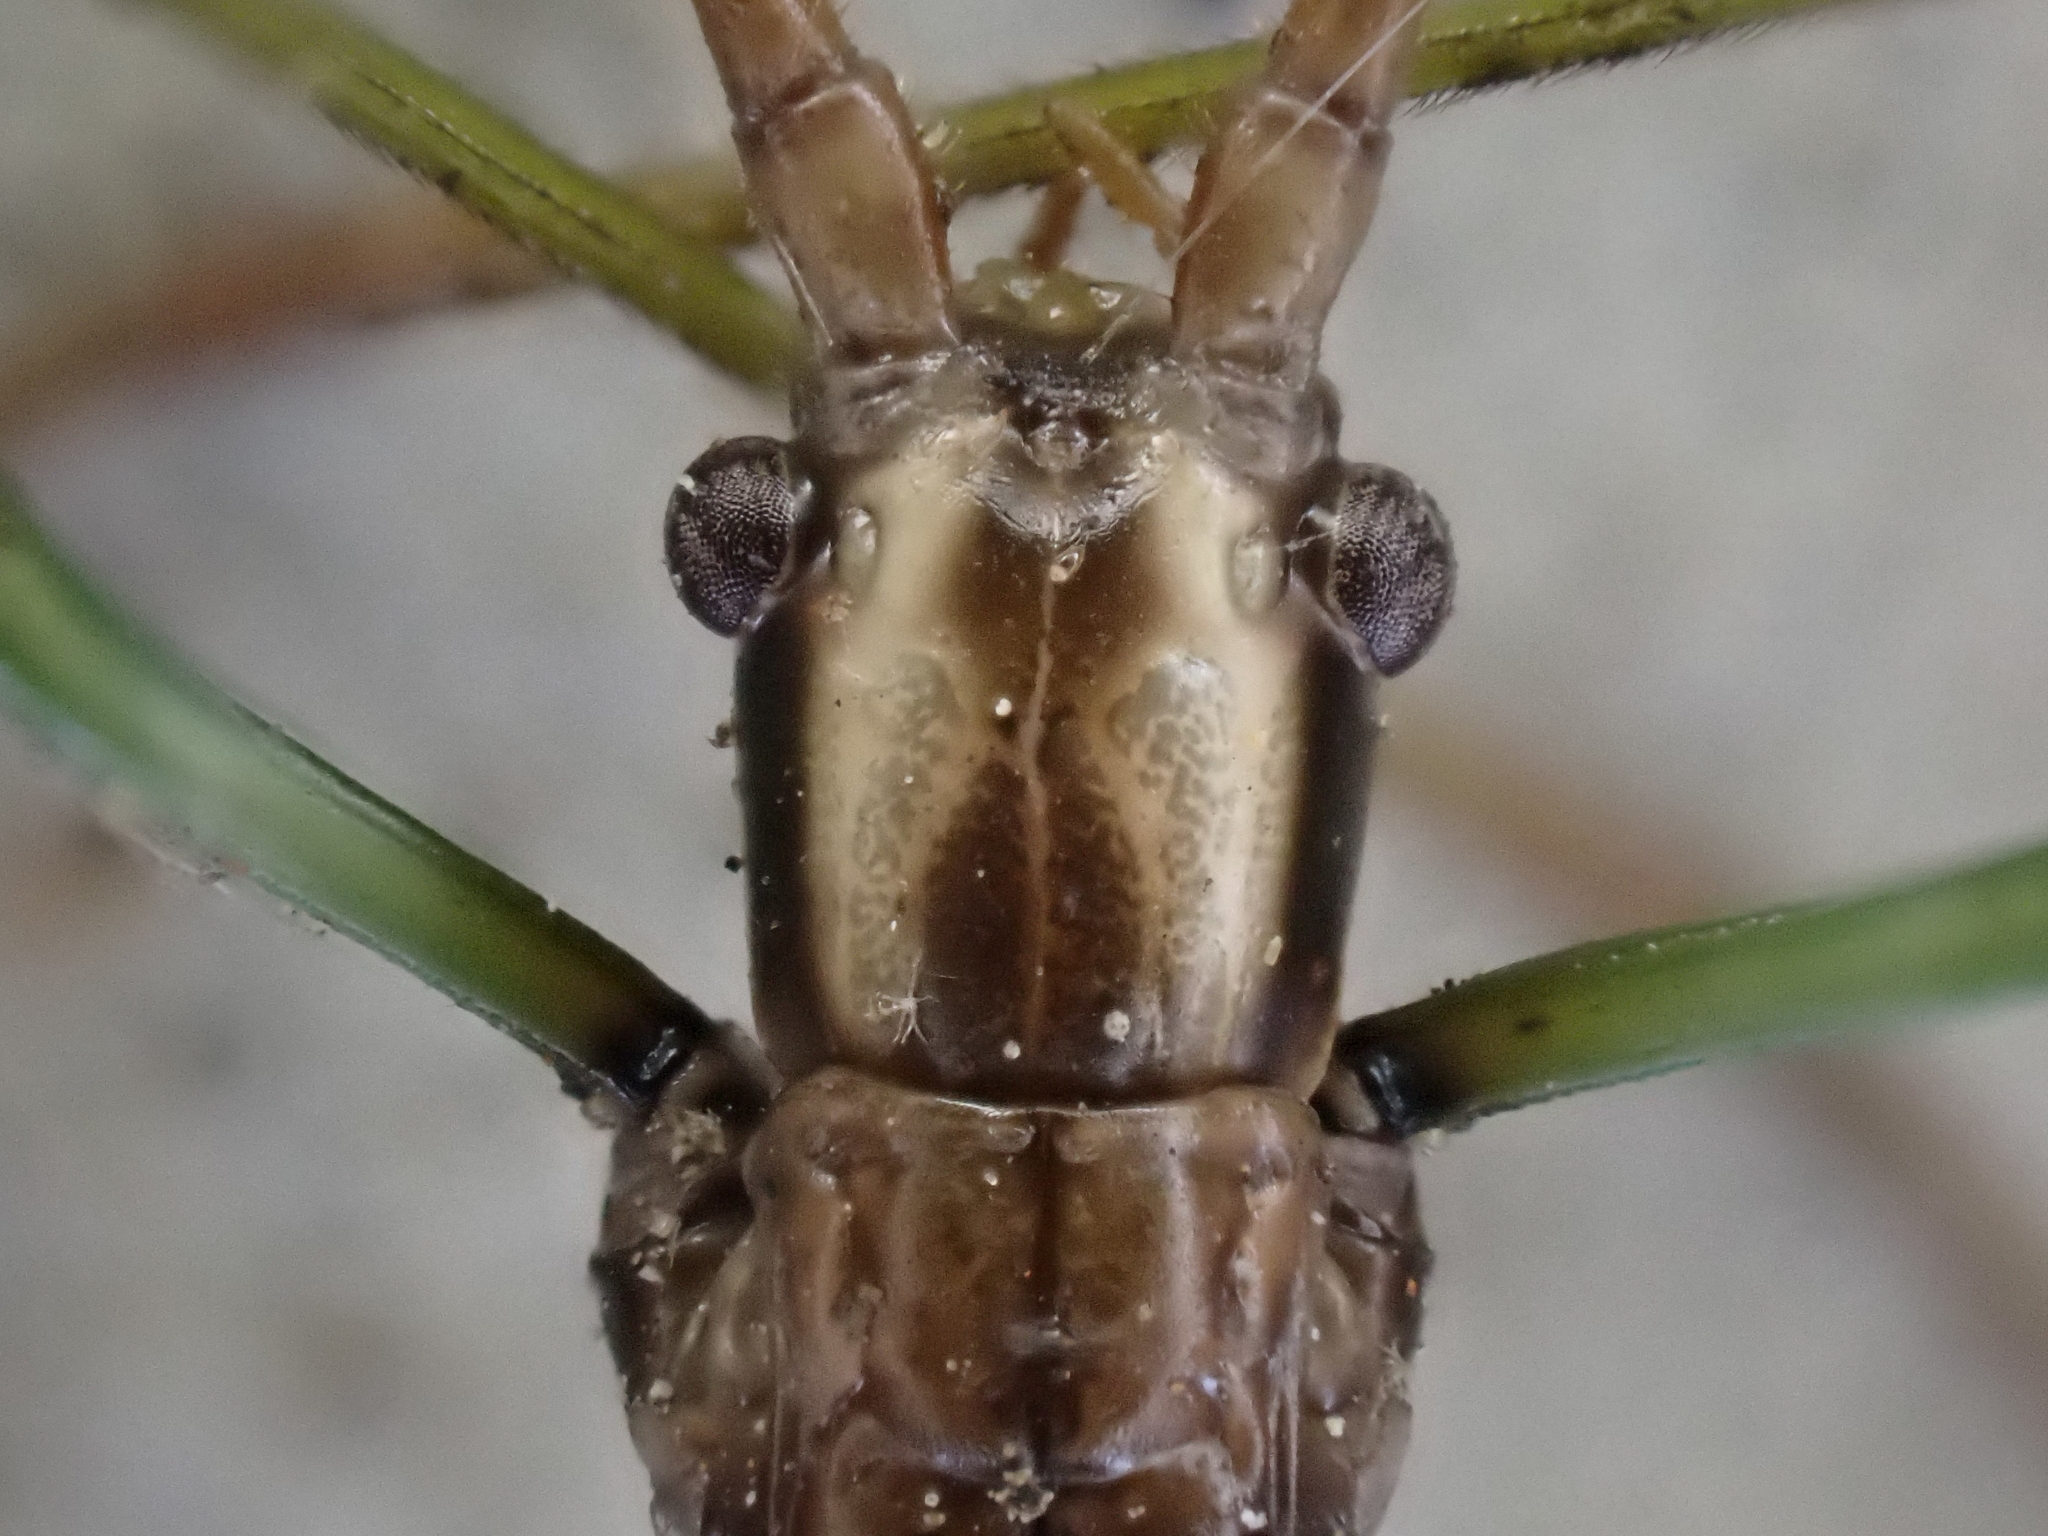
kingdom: Animalia
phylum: Arthropoda
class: Insecta
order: Phasmida
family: Diapheromeridae
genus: Diapheromera
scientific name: Diapheromera femorata
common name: Common american walkingstick
